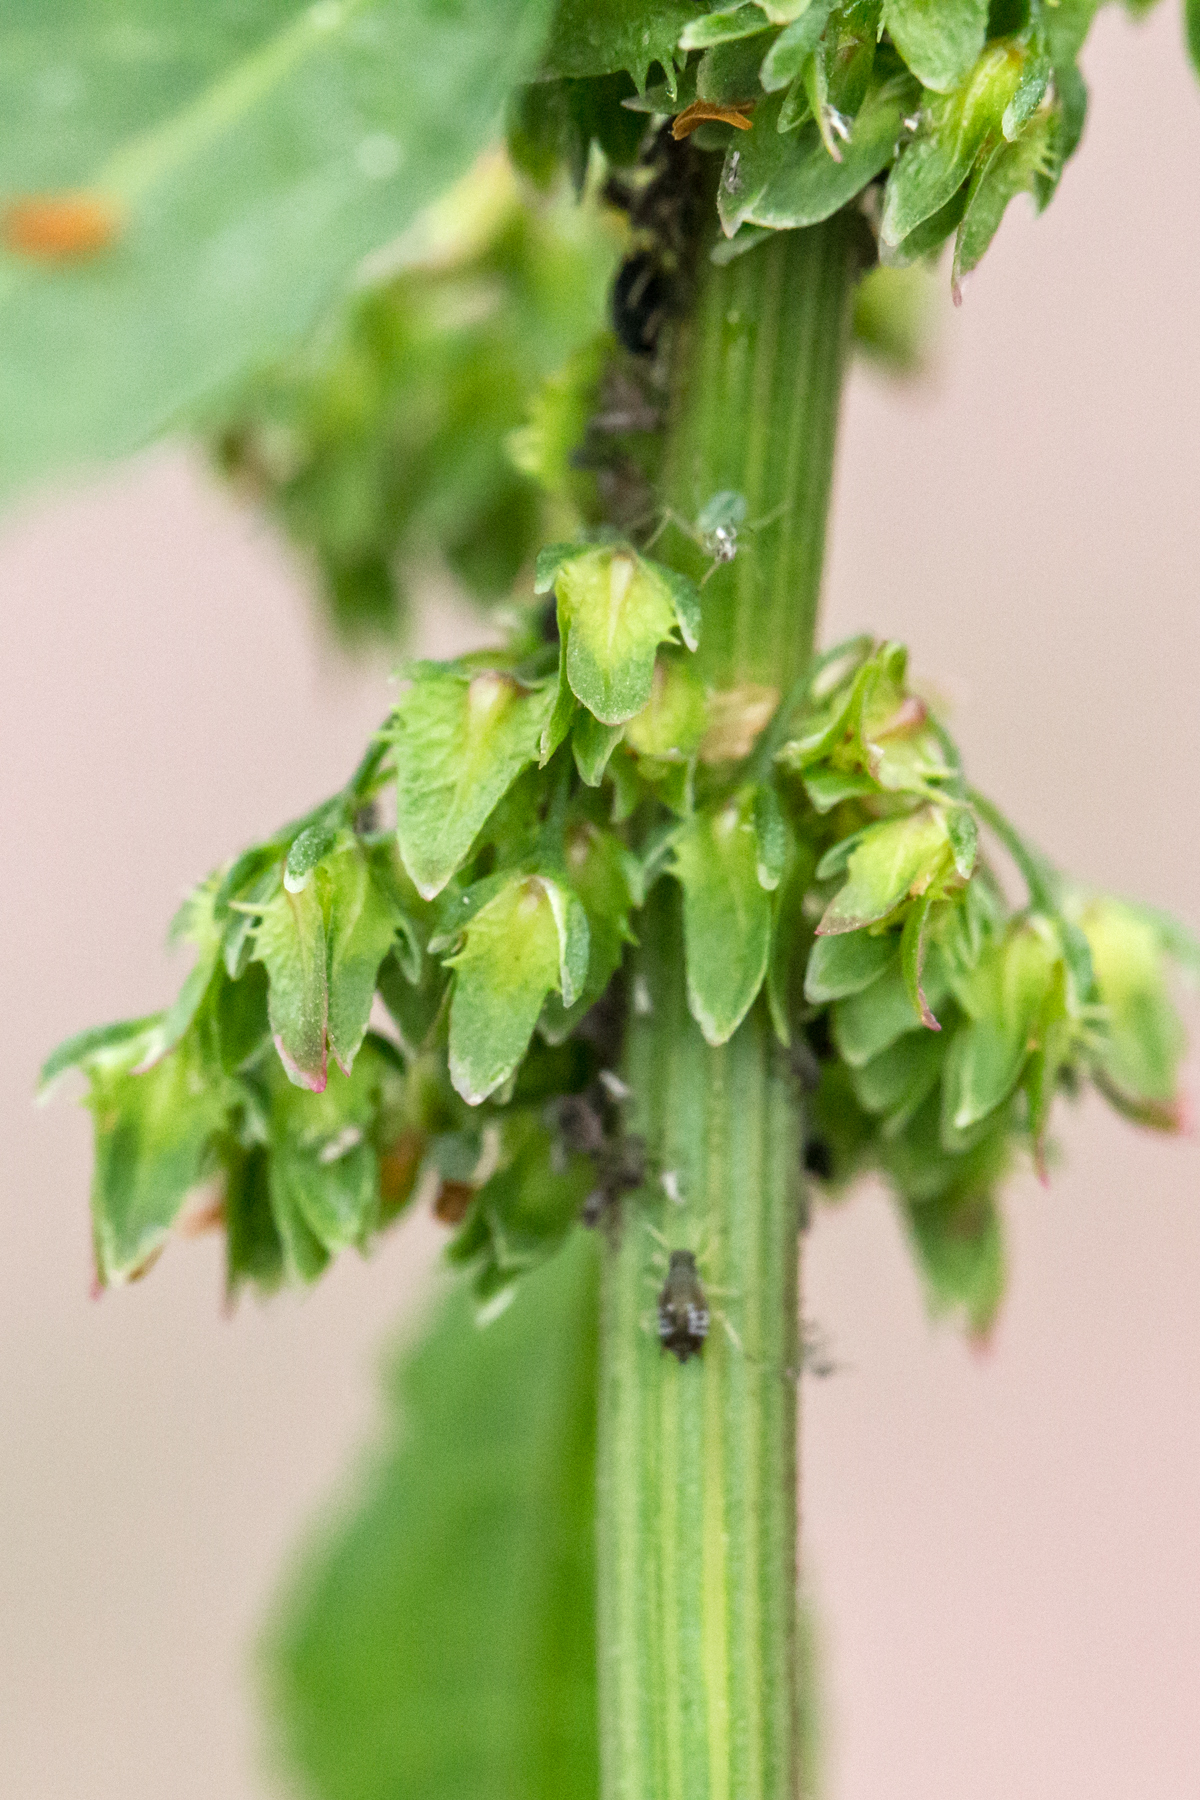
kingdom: Plantae
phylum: Tracheophyta
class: Magnoliopsida
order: Caryophyllales
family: Polygonaceae
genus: Rumex
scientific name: Rumex obtusifolius
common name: Bitter dock
